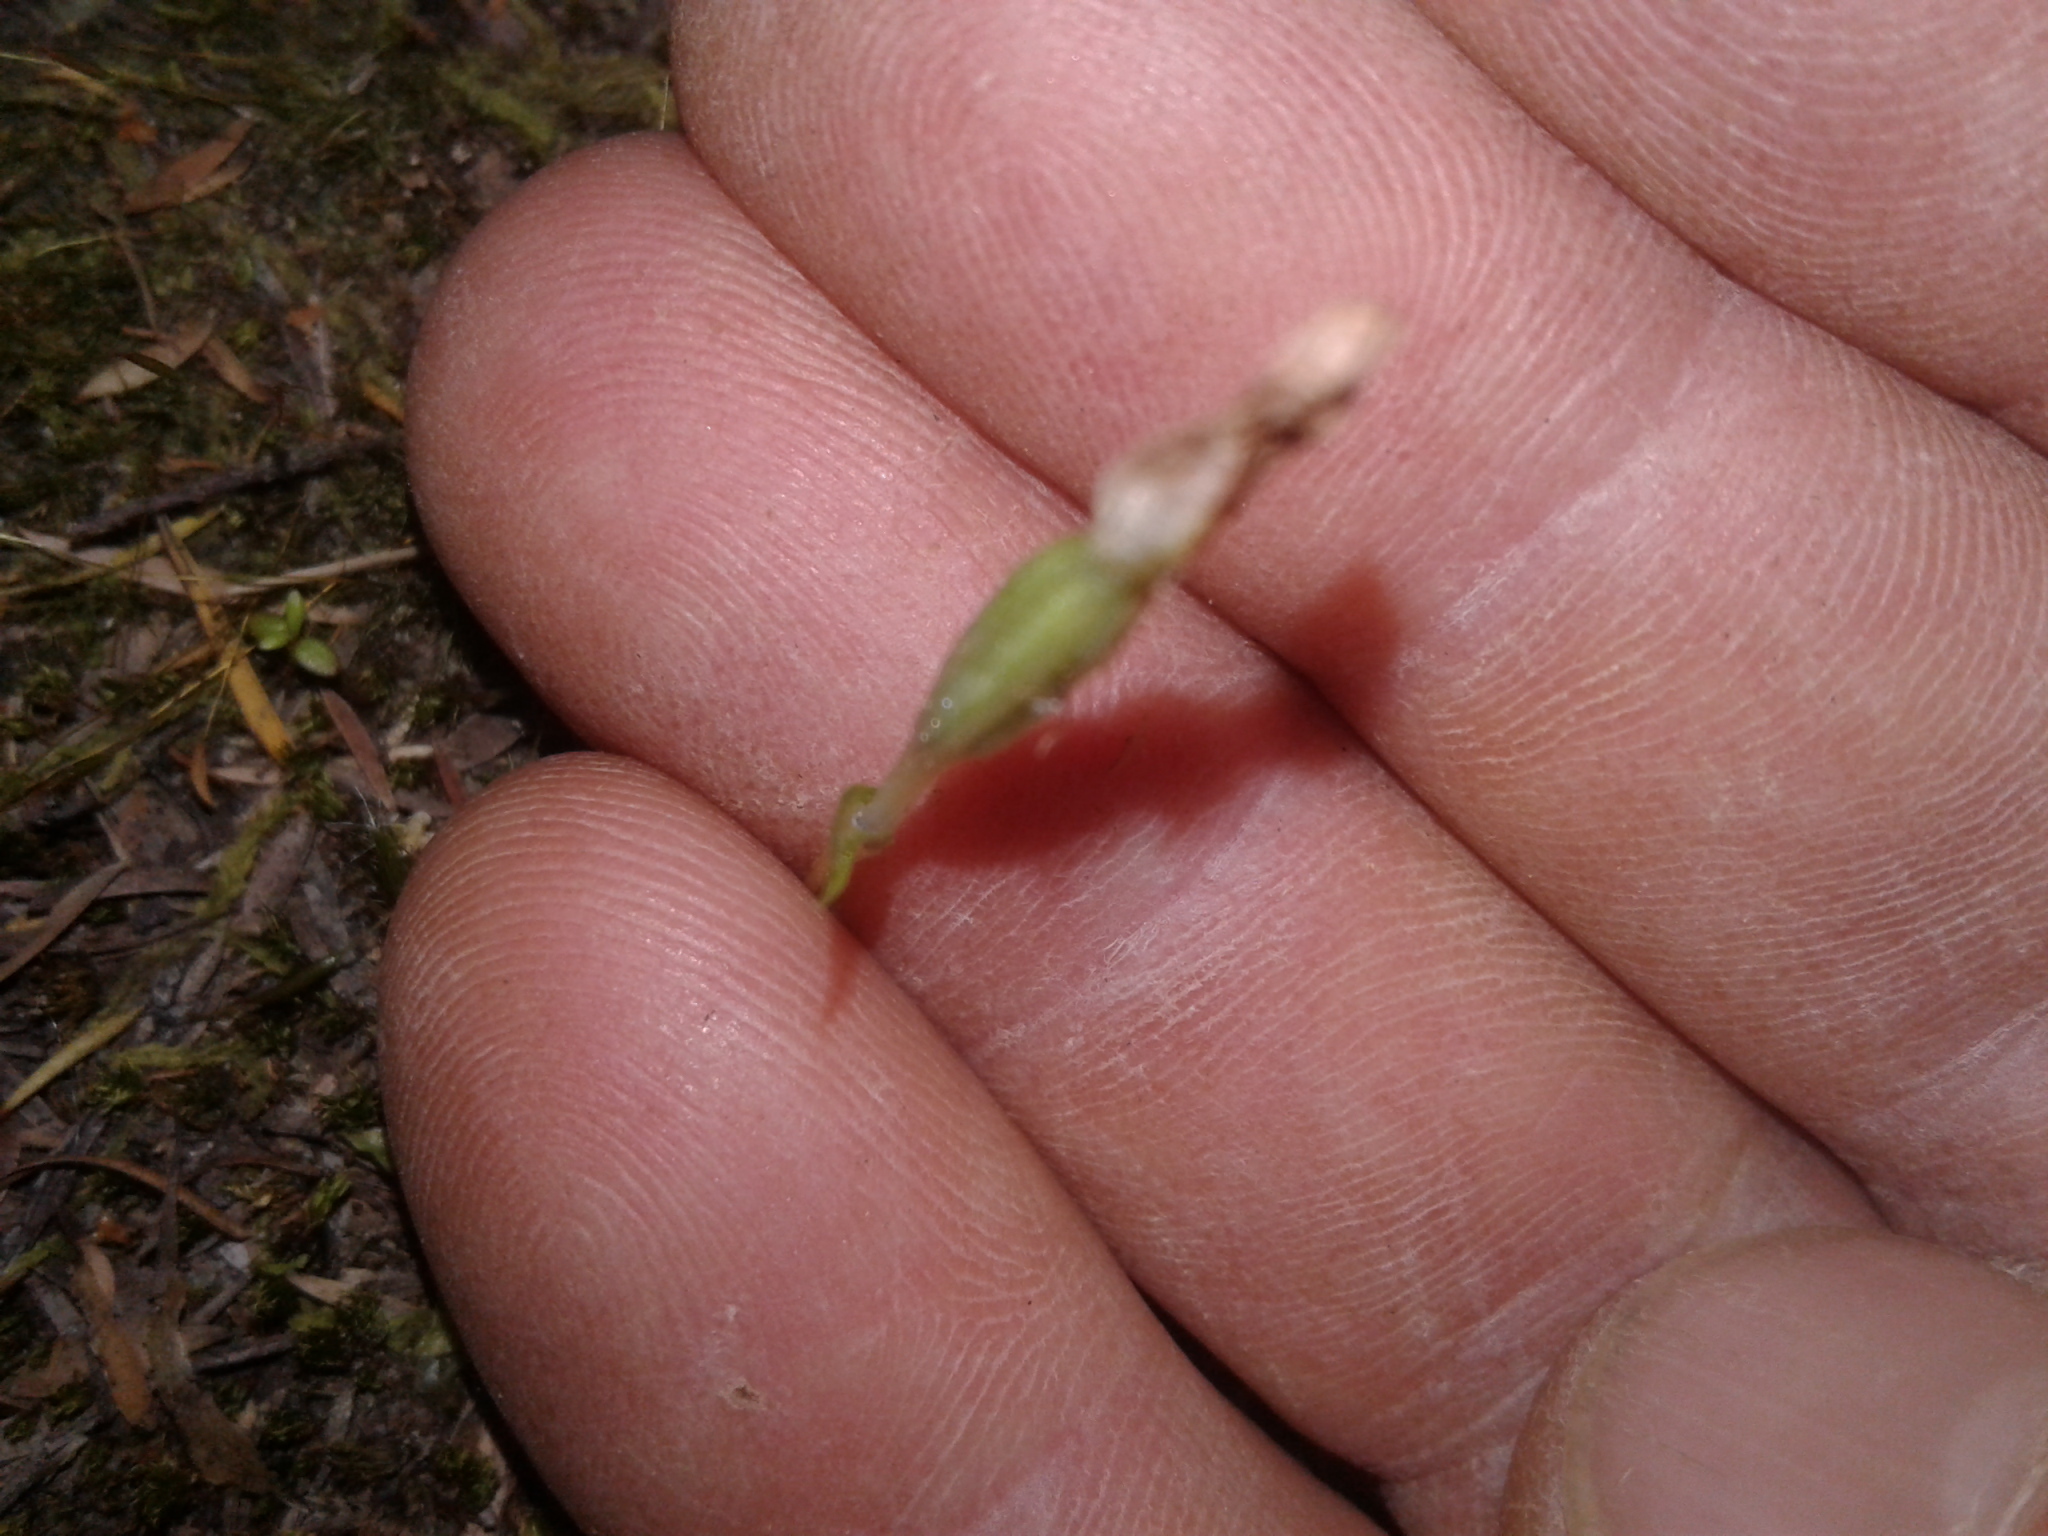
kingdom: Plantae
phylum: Tracheophyta
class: Liliopsida
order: Asparagales
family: Orchidaceae
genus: Thelymitra
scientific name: Thelymitra
